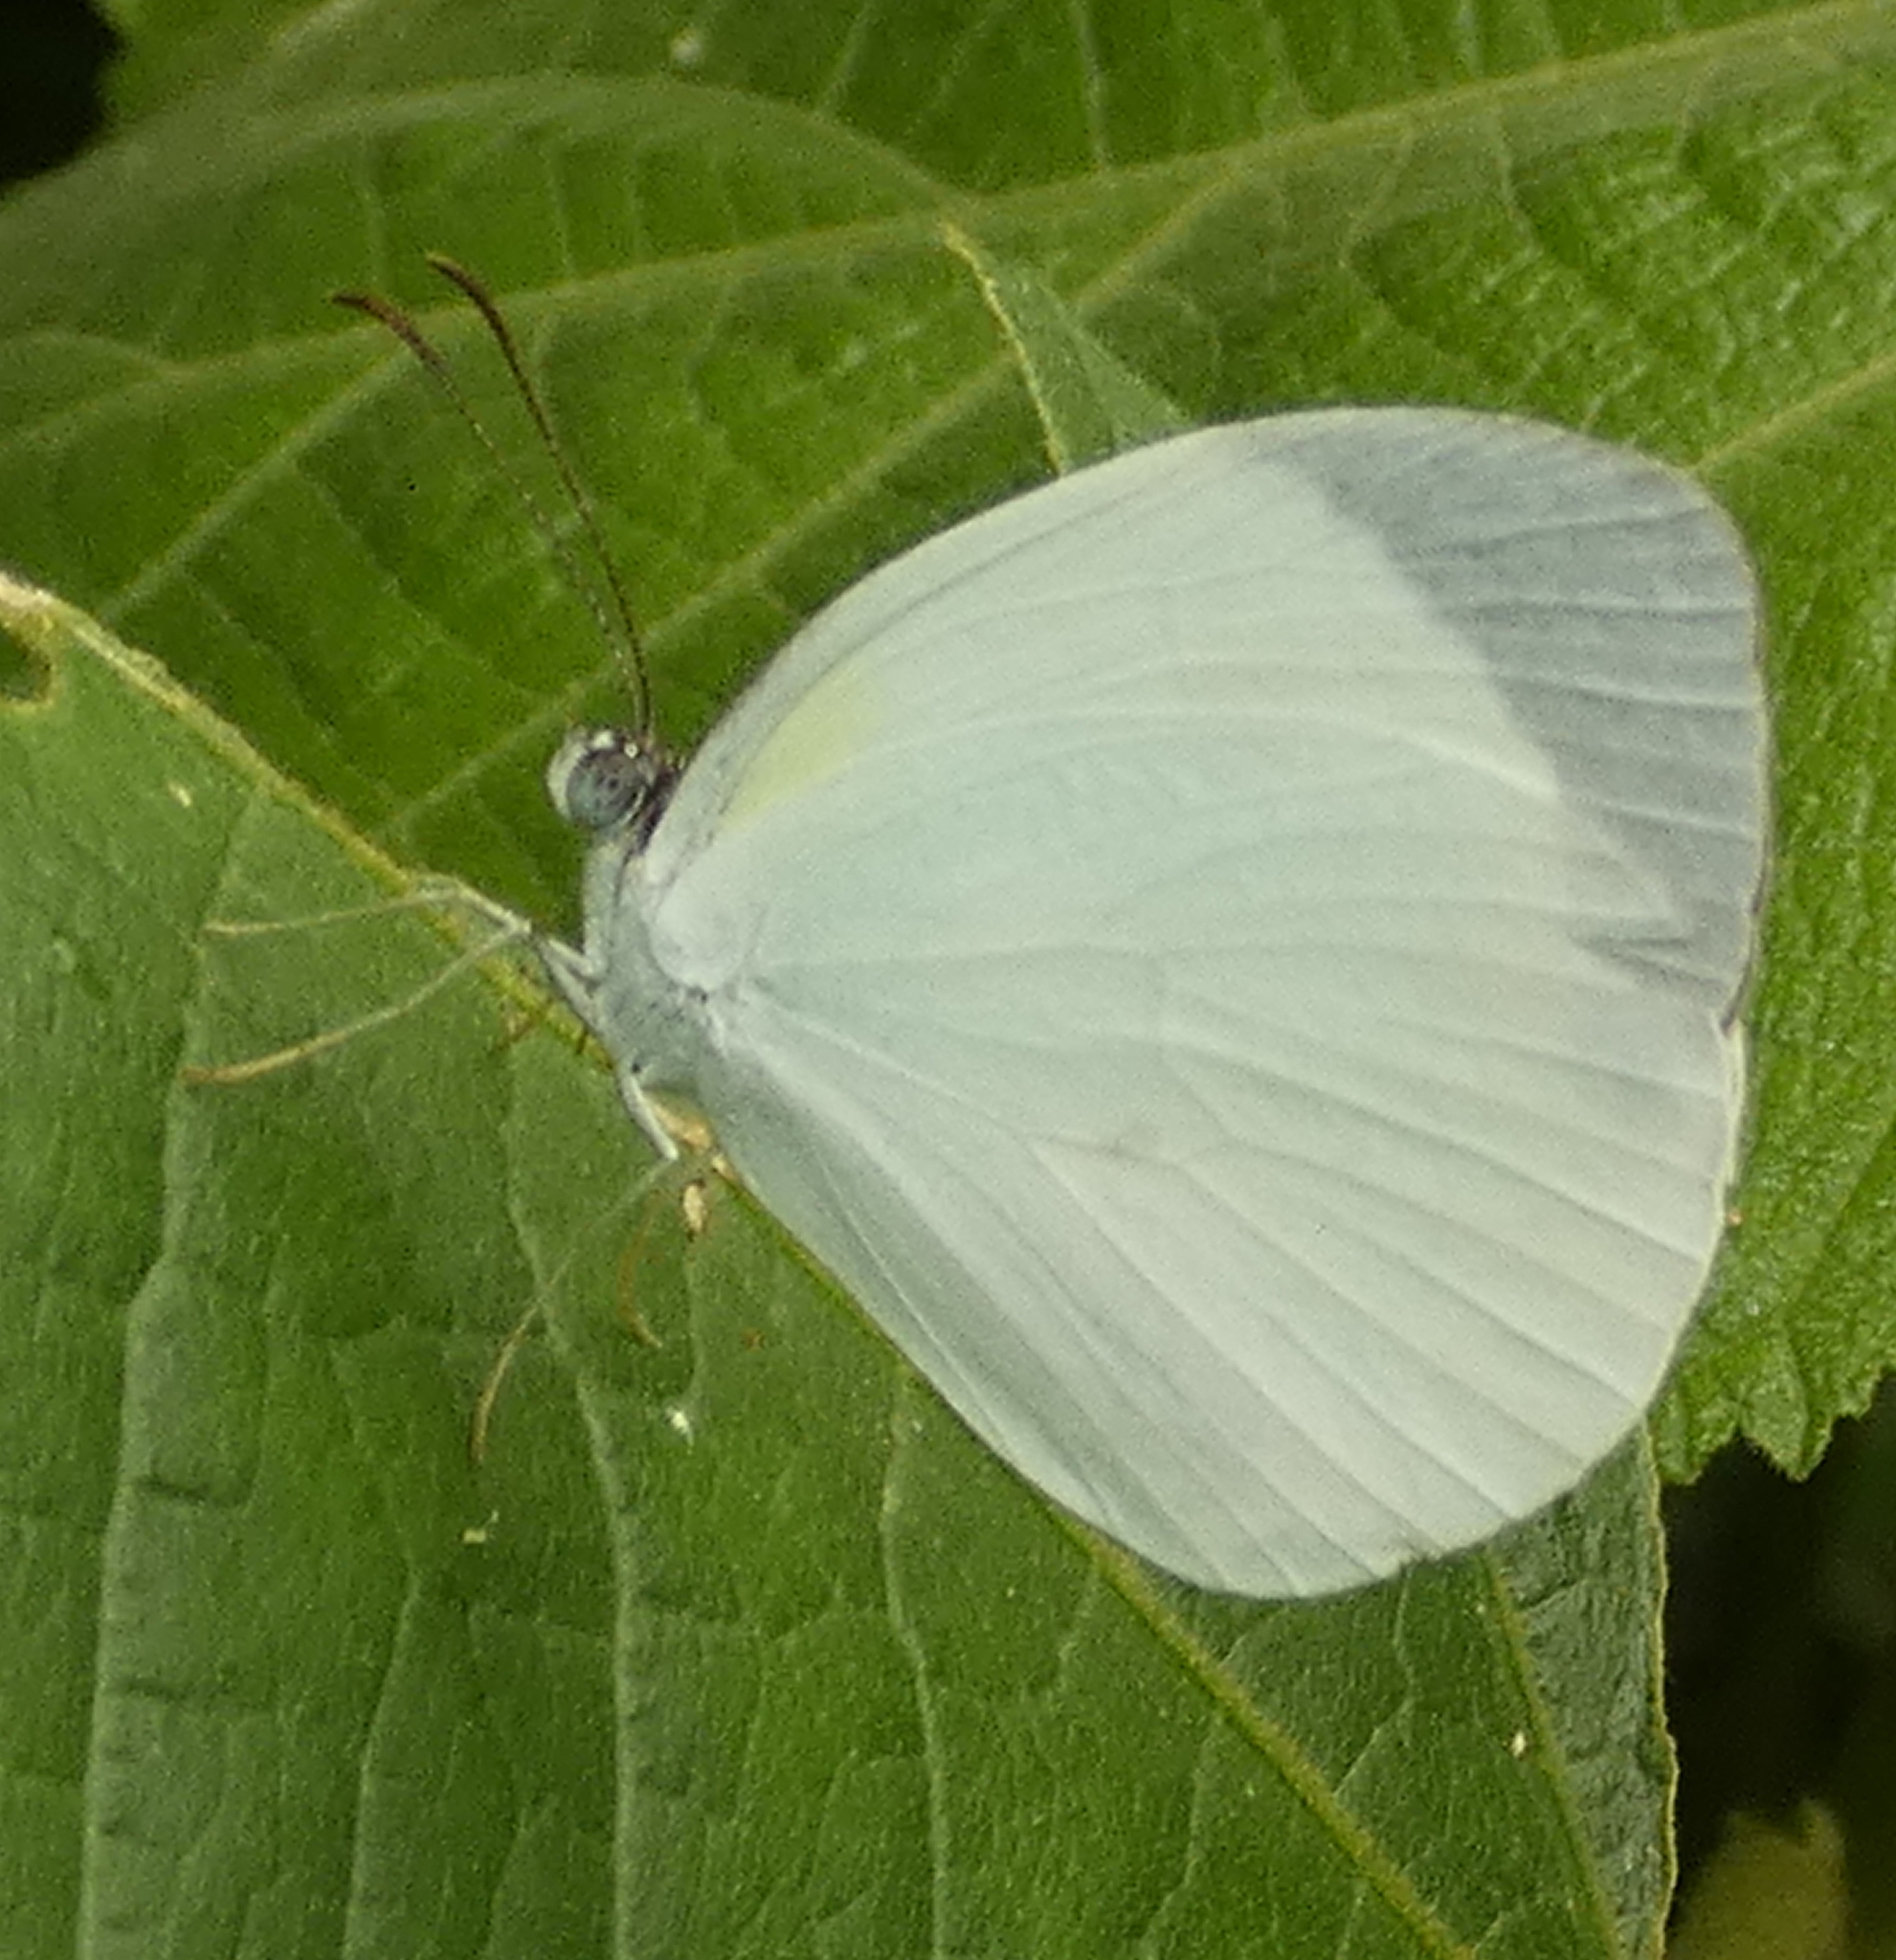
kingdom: Animalia
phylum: Arthropoda
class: Insecta
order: Lepidoptera
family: Pieridae
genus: Abaeis
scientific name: Abaeis albula
